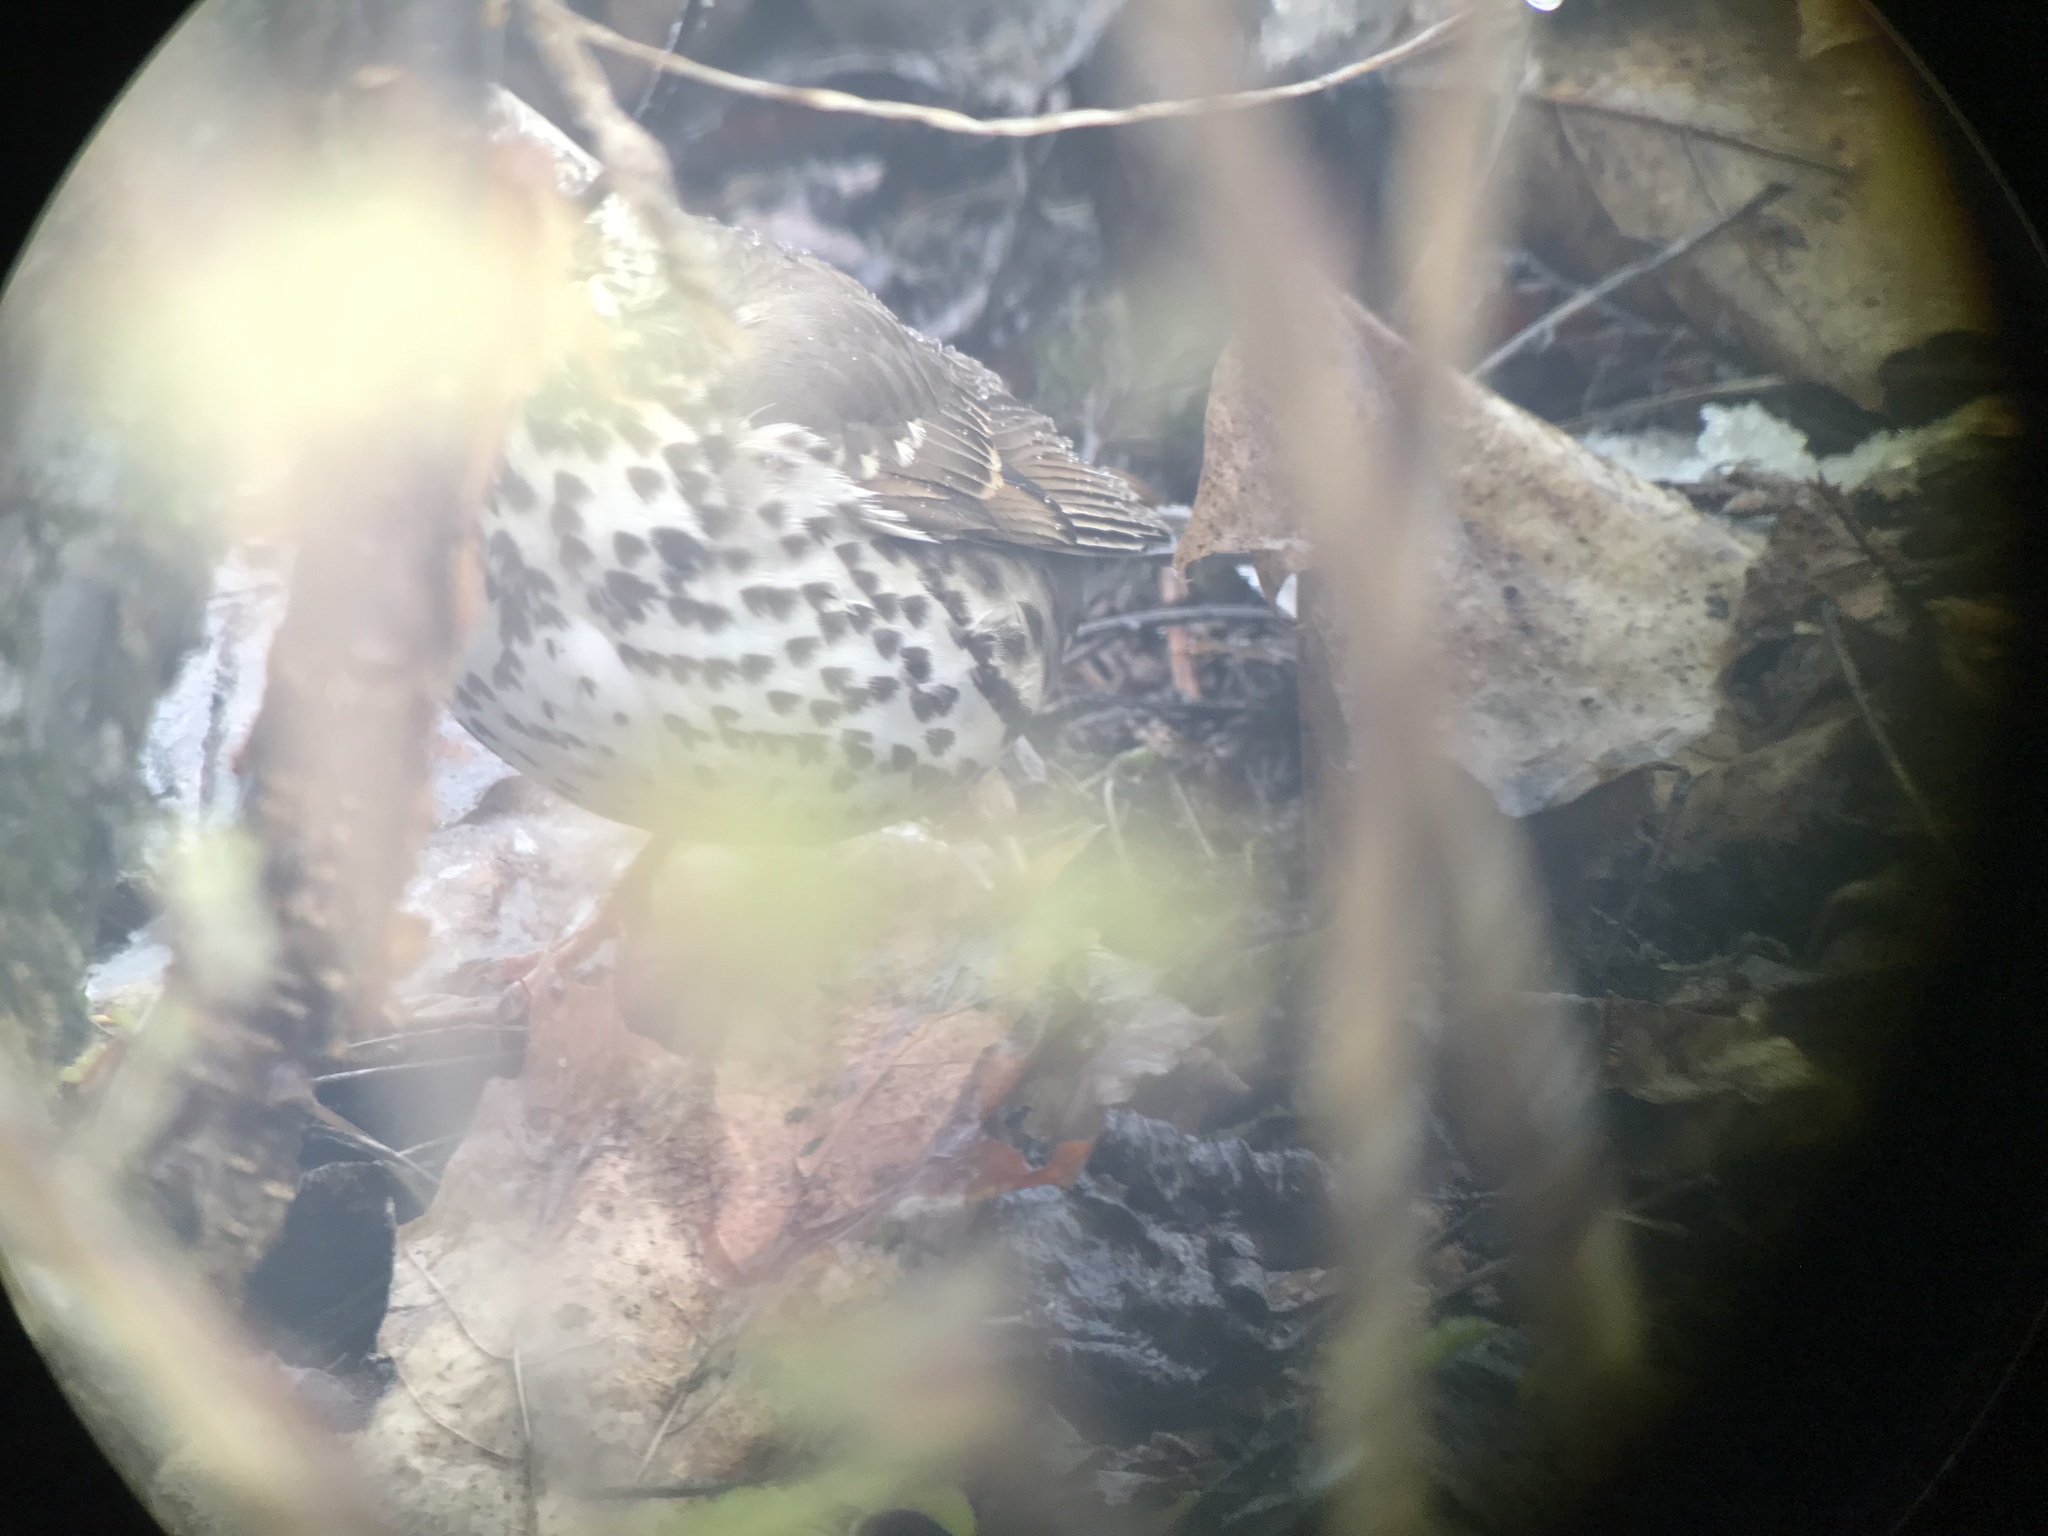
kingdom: Animalia
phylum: Chordata
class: Aves
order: Passeriformes
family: Turdidae
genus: Turdus
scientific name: Turdus philomelos
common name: Song thrush
